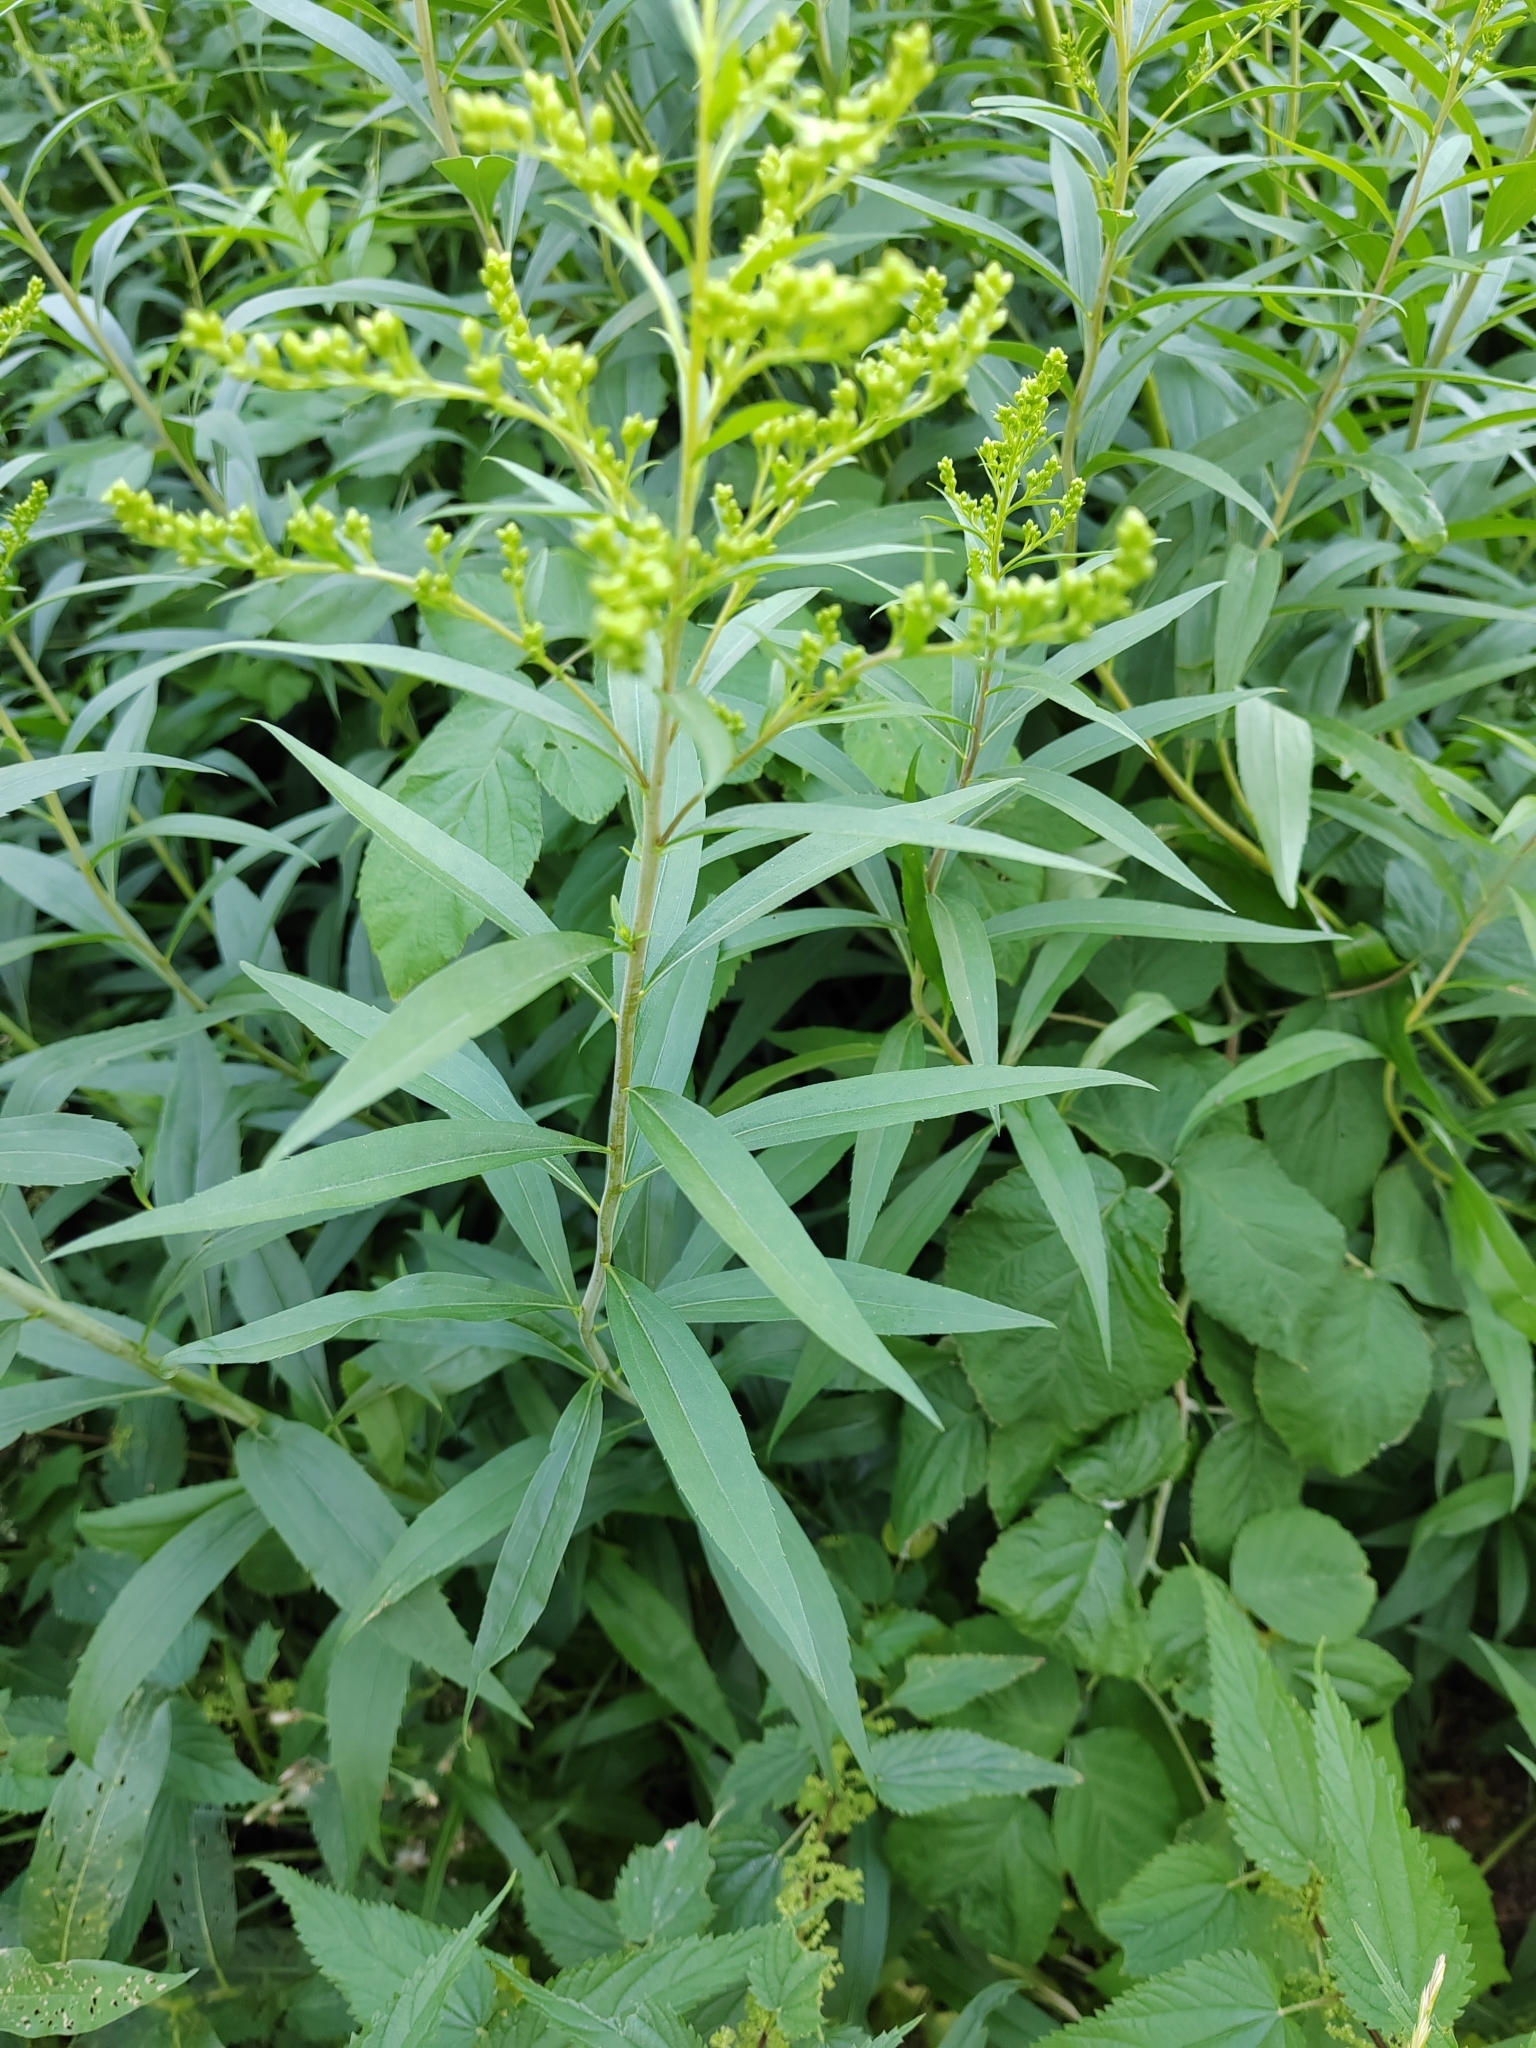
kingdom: Plantae
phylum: Tracheophyta
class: Magnoliopsida
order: Asterales
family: Asteraceae
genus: Solidago
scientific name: Solidago gigantea
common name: Giant goldenrod
